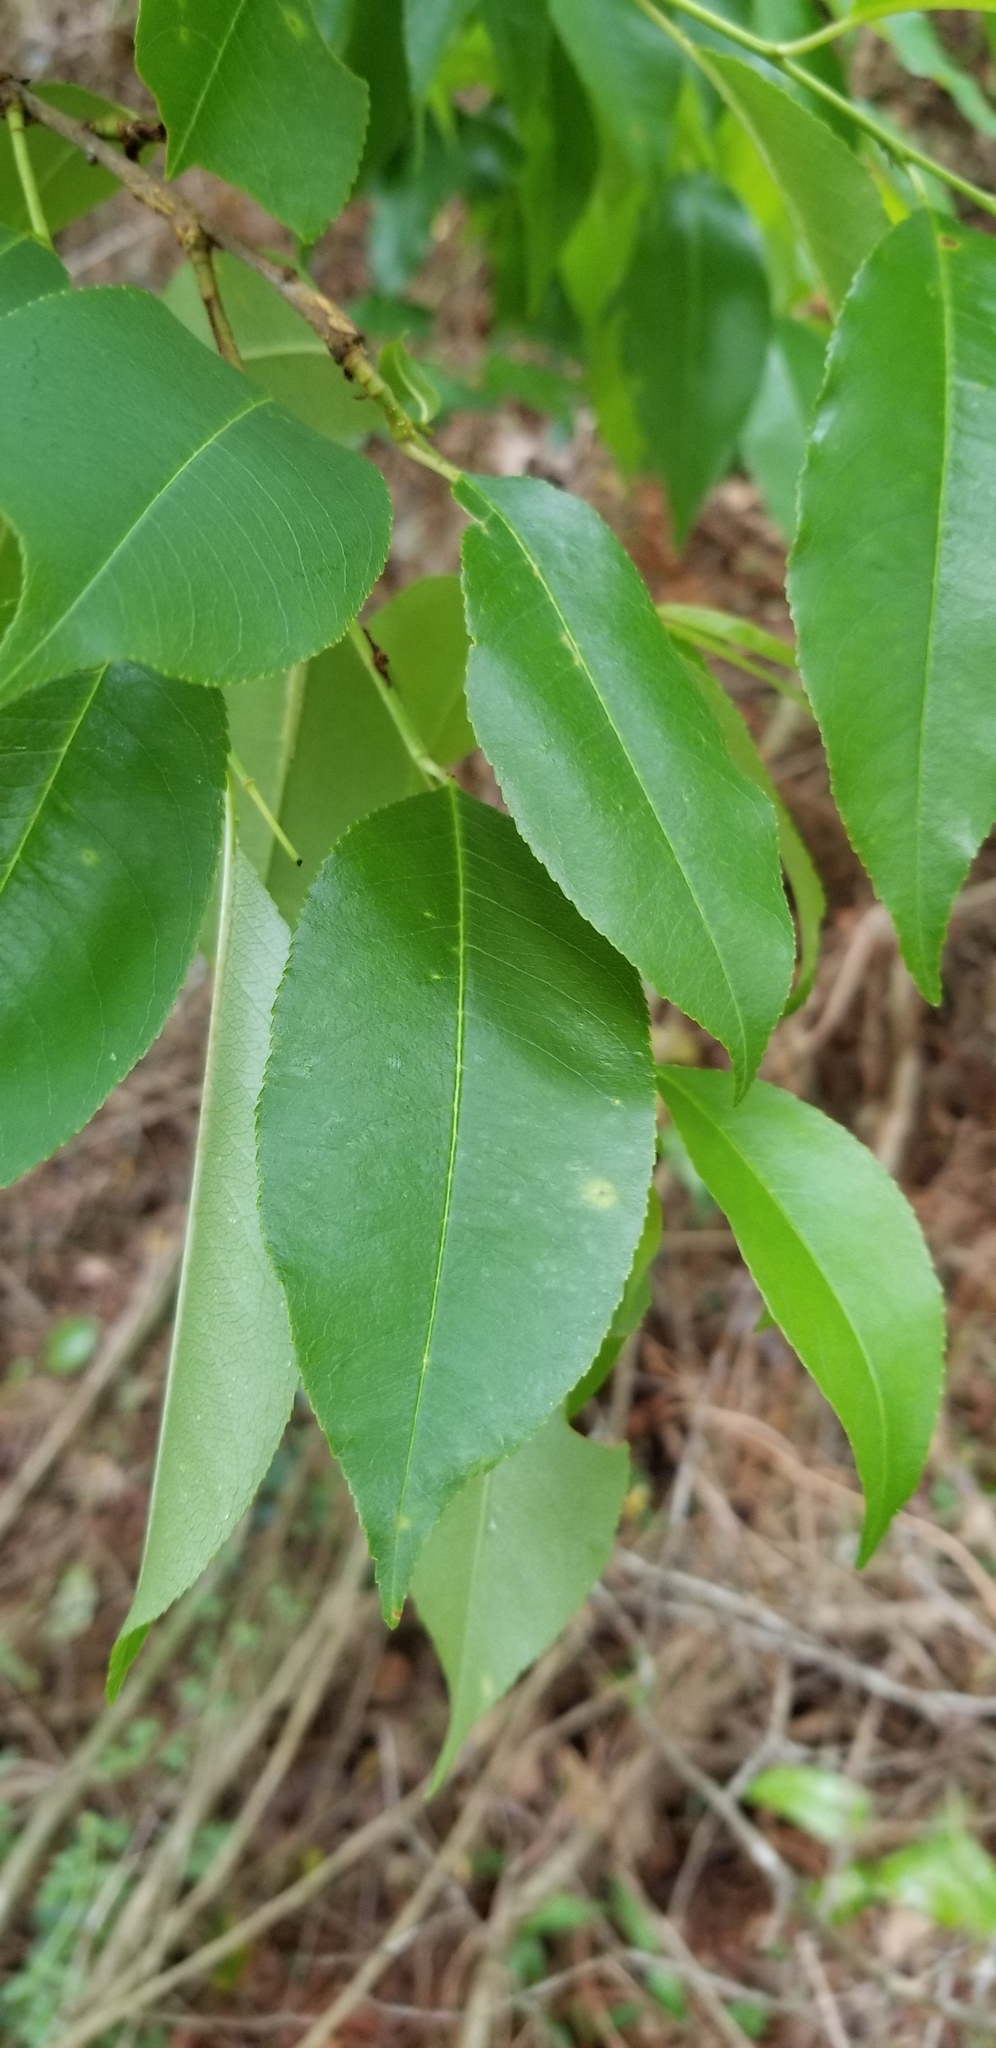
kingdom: Plantae
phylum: Tracheophyta
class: Magnoliopsida
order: Rosales
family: Rosaceae
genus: Prunus
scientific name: Prunus serotina
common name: Black cherry
